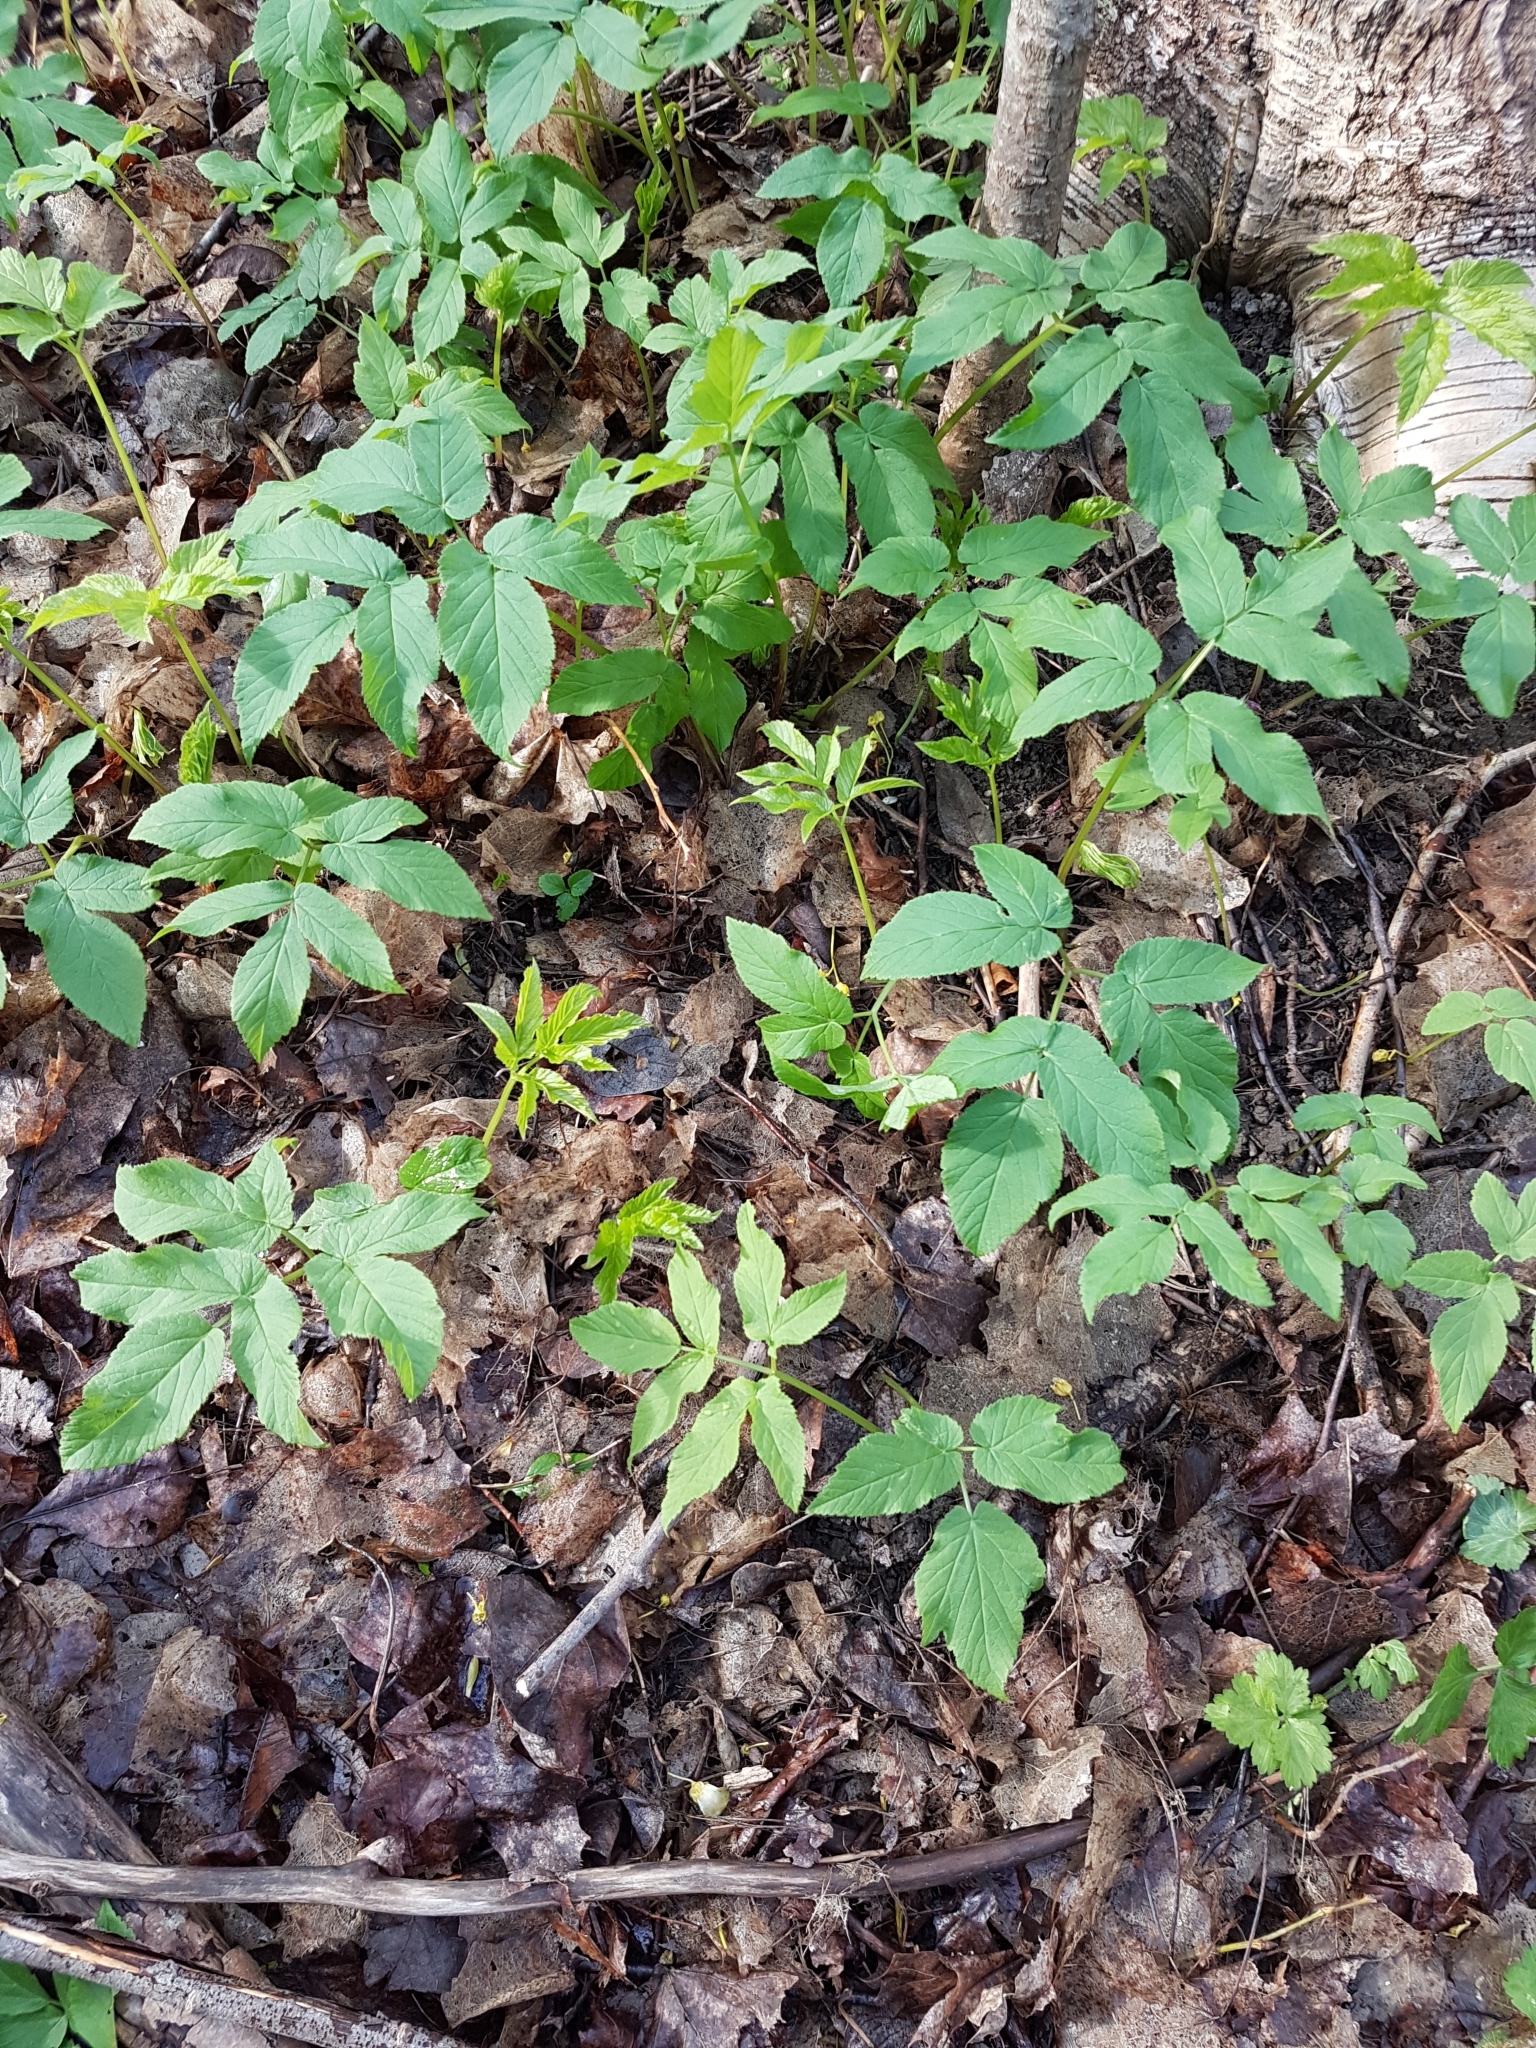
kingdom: Plantae
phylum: Tracheophyta
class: Magnoliopsida
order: Apiales
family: Apiaceae
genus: Aegopodium
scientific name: Aegopodium podagraria
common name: Ground-elder
